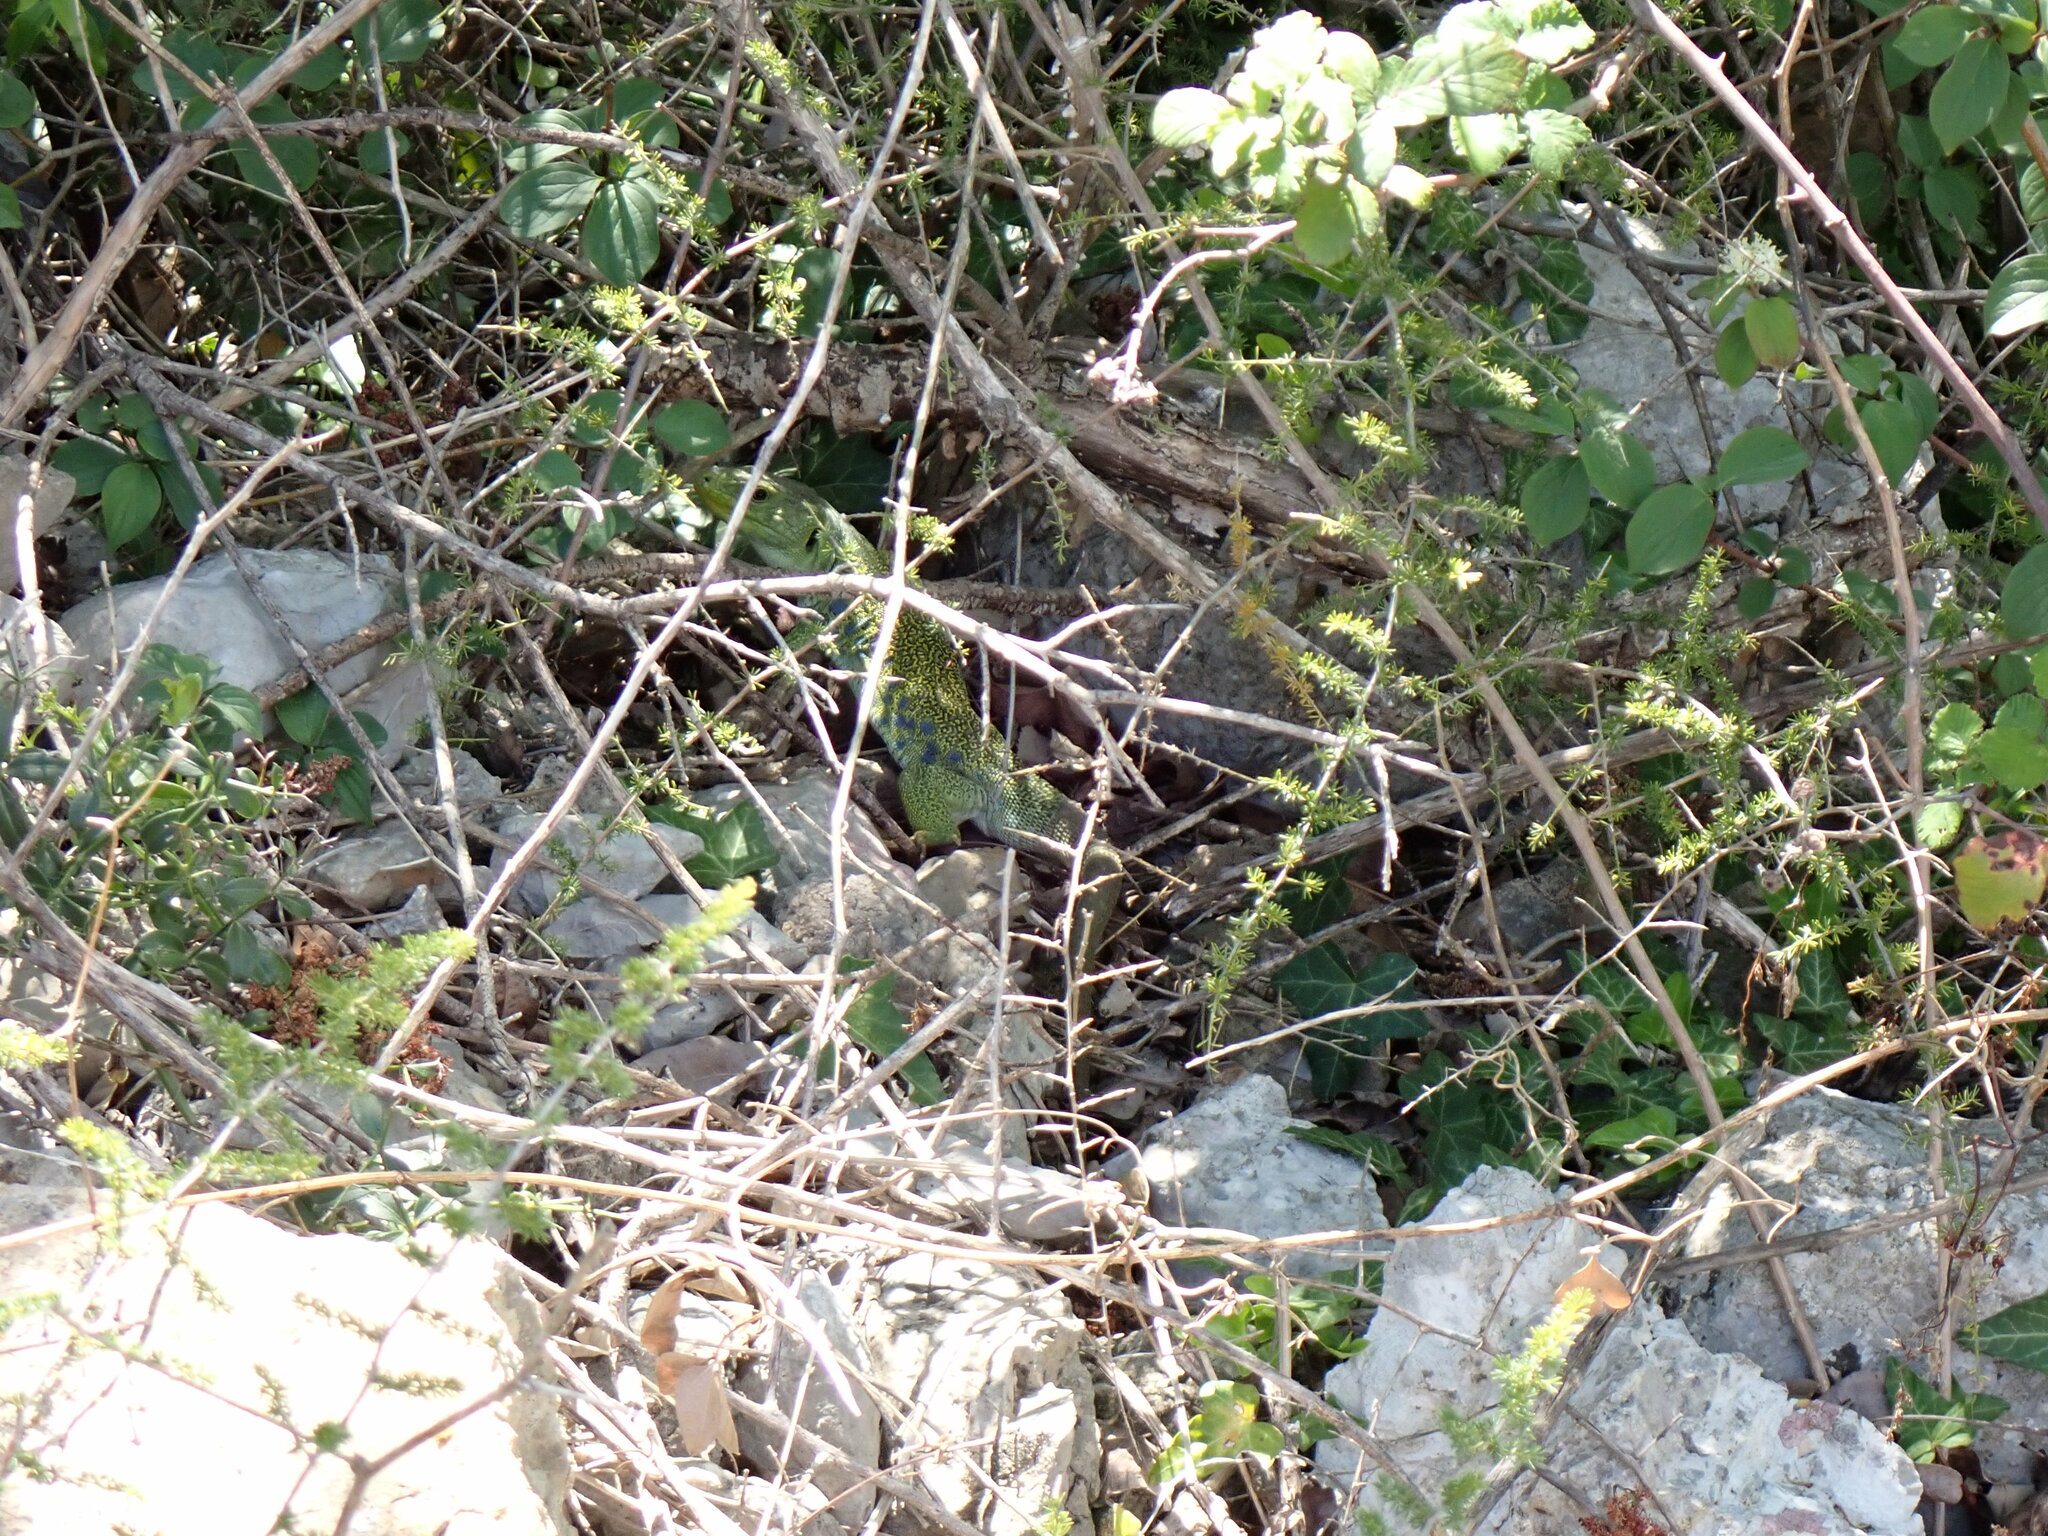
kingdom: Animalia
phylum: Chordata
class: Squamata
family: Lacertidae
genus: Timon
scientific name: Timon lepidus
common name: Ocellated lizard
